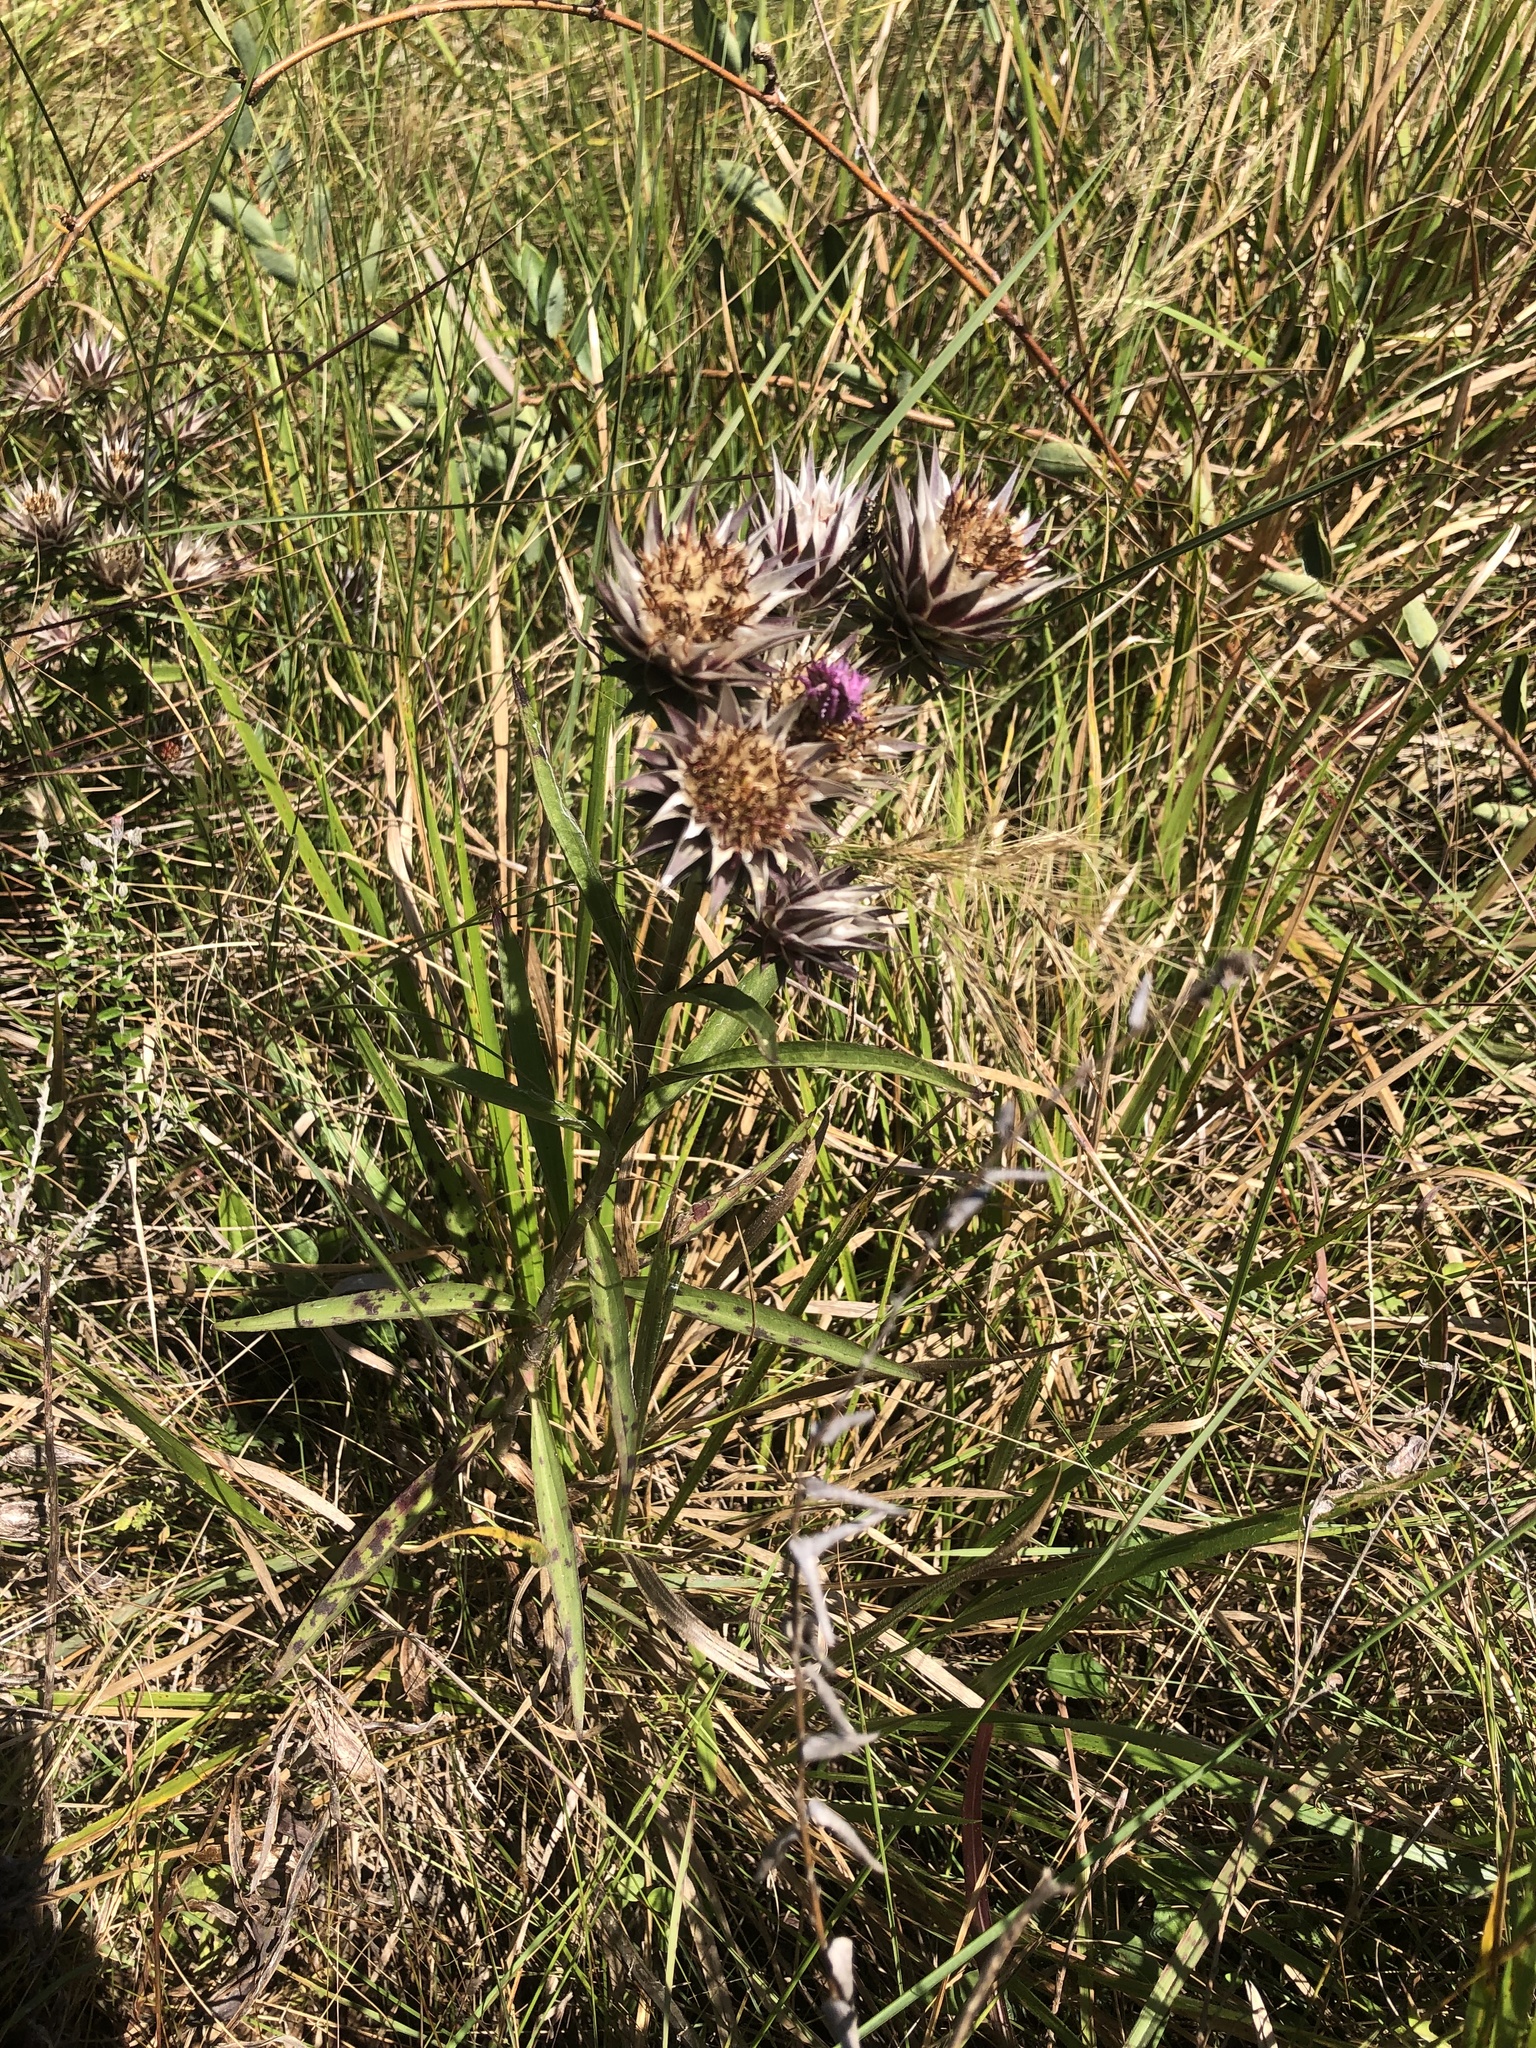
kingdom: Plantae
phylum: Tracheophyta
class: Magnoliopsida
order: Asterales
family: Asteraceae
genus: Macledium
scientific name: Macledium zeyheri
